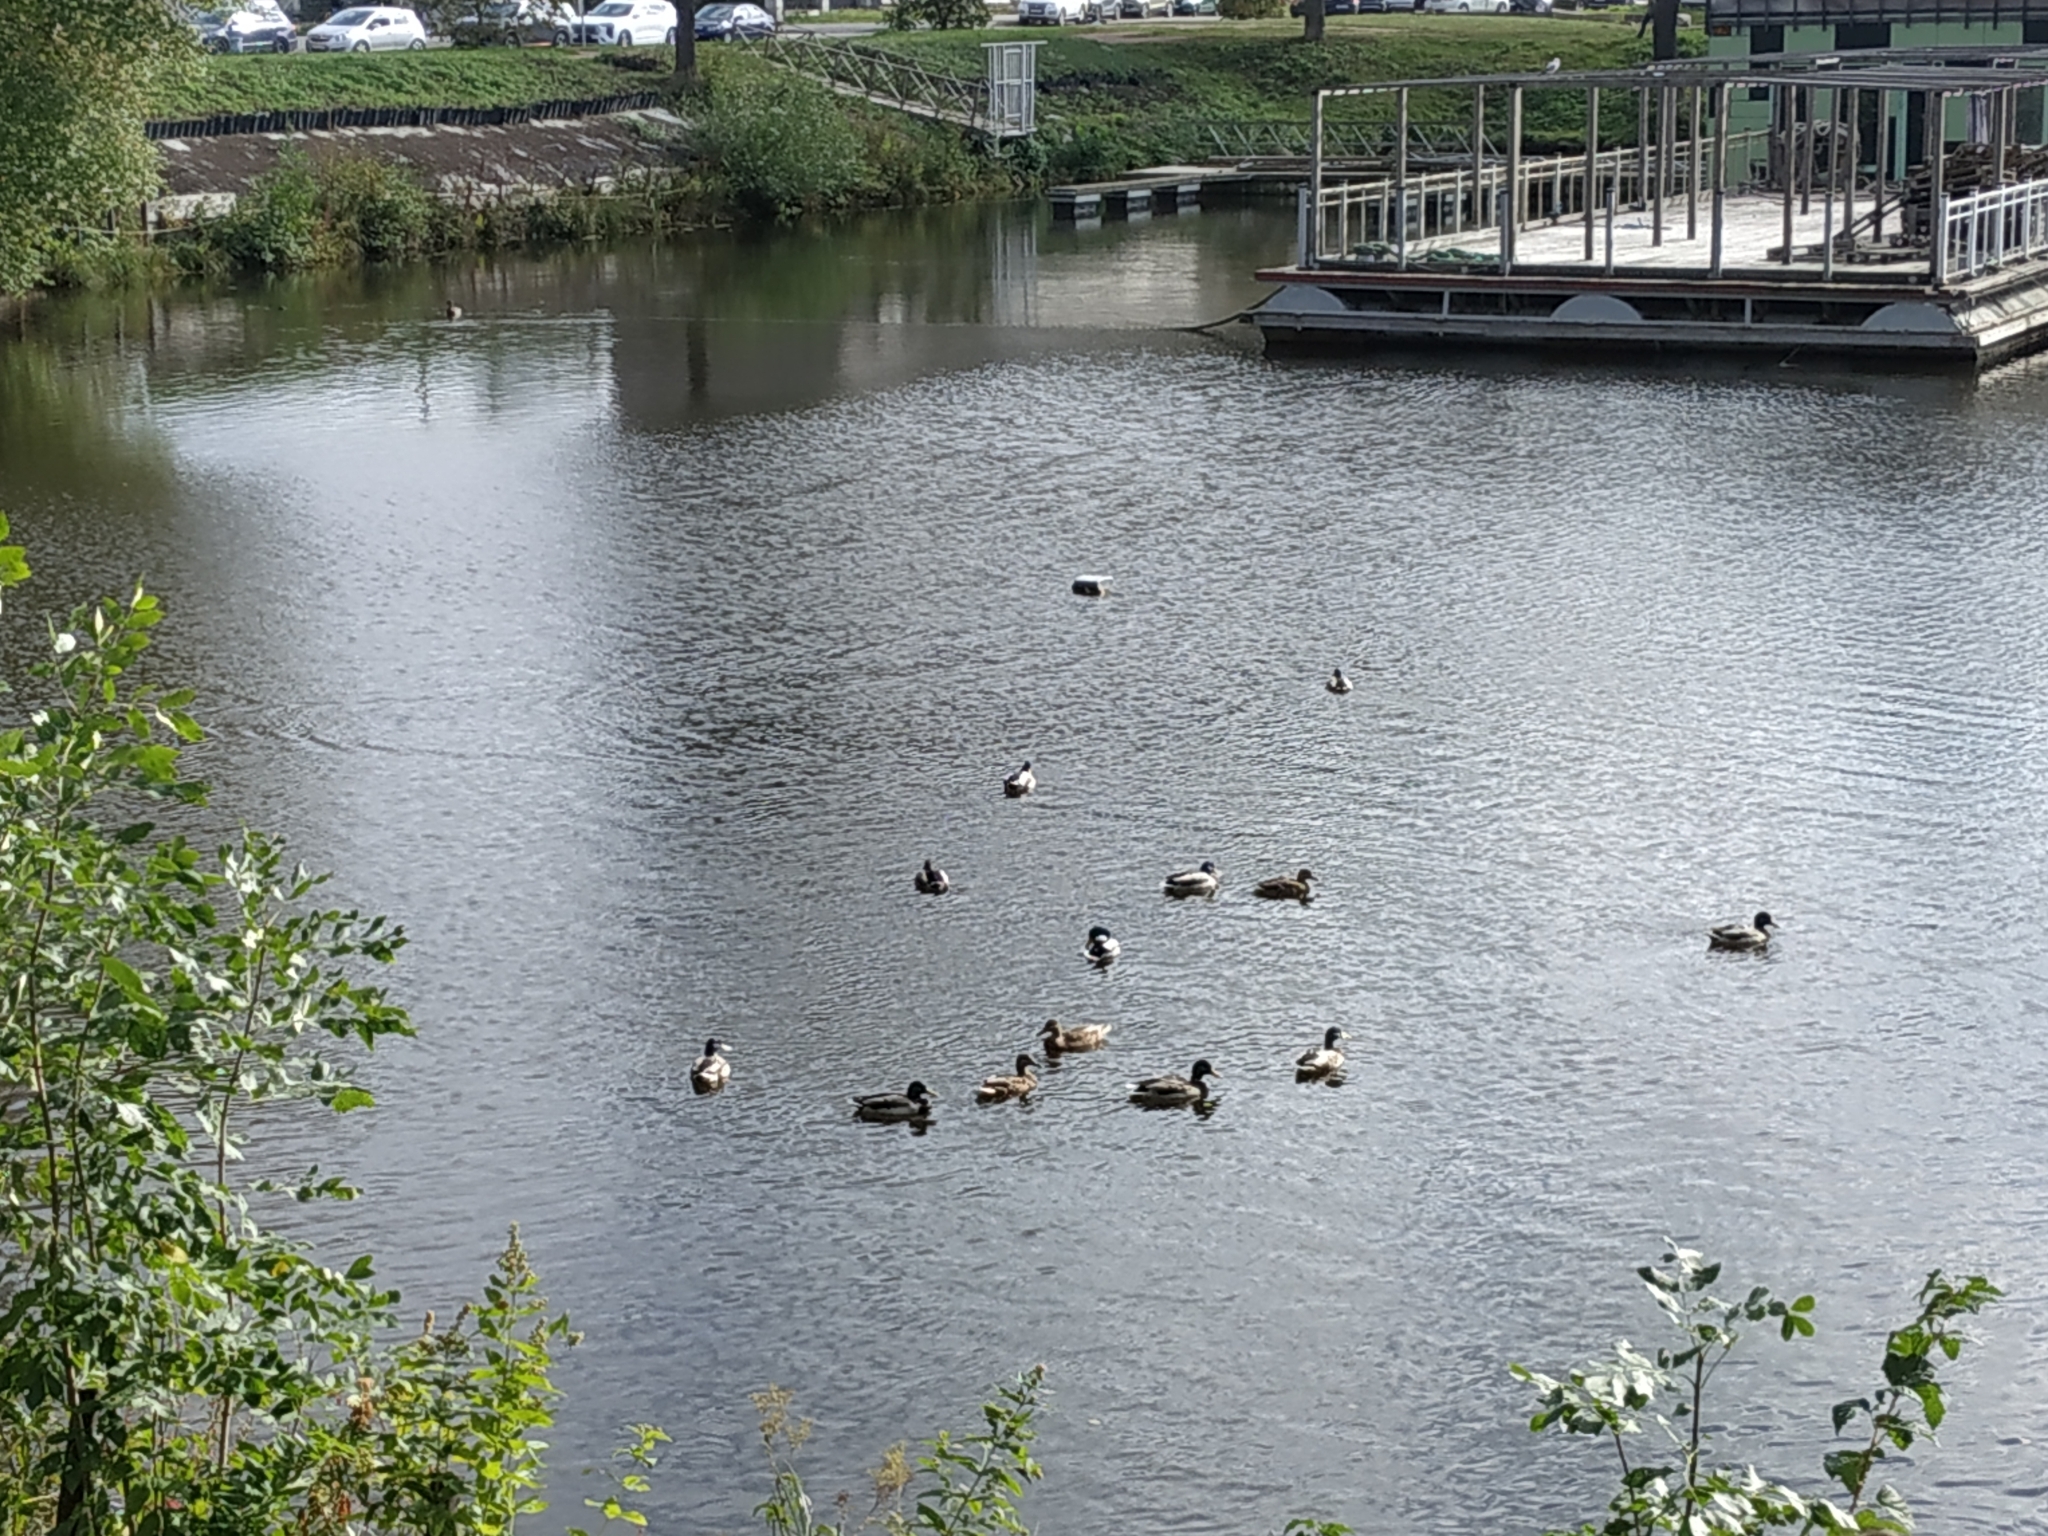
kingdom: Animalia
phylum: Chordata
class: Aves
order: Anseriformes
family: Anatidae
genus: Anas
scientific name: Anas platyrhynchos
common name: Mallard
